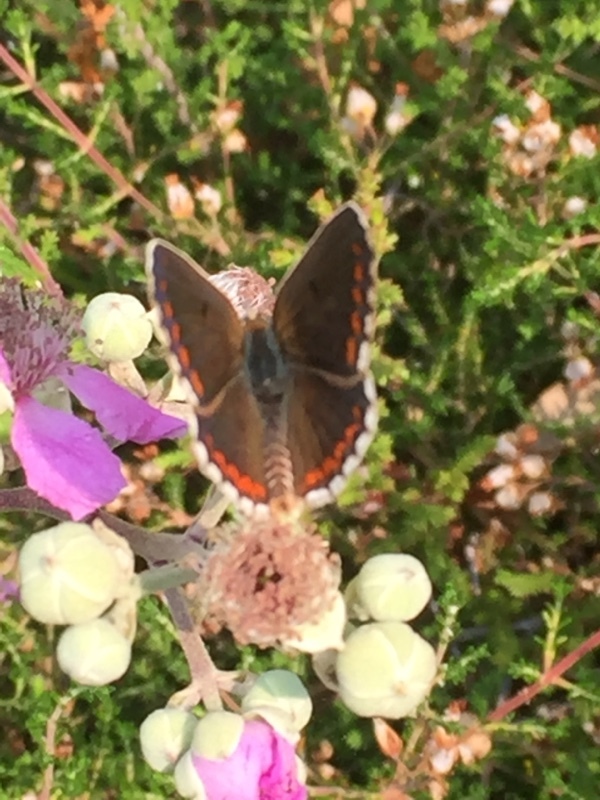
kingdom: Animalia
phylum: Arthropoda
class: Insecta
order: Lepidoptera
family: Lycaenidae
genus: Aricia
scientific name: Aricia cramera
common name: Eschscholtz´s brown  argus
